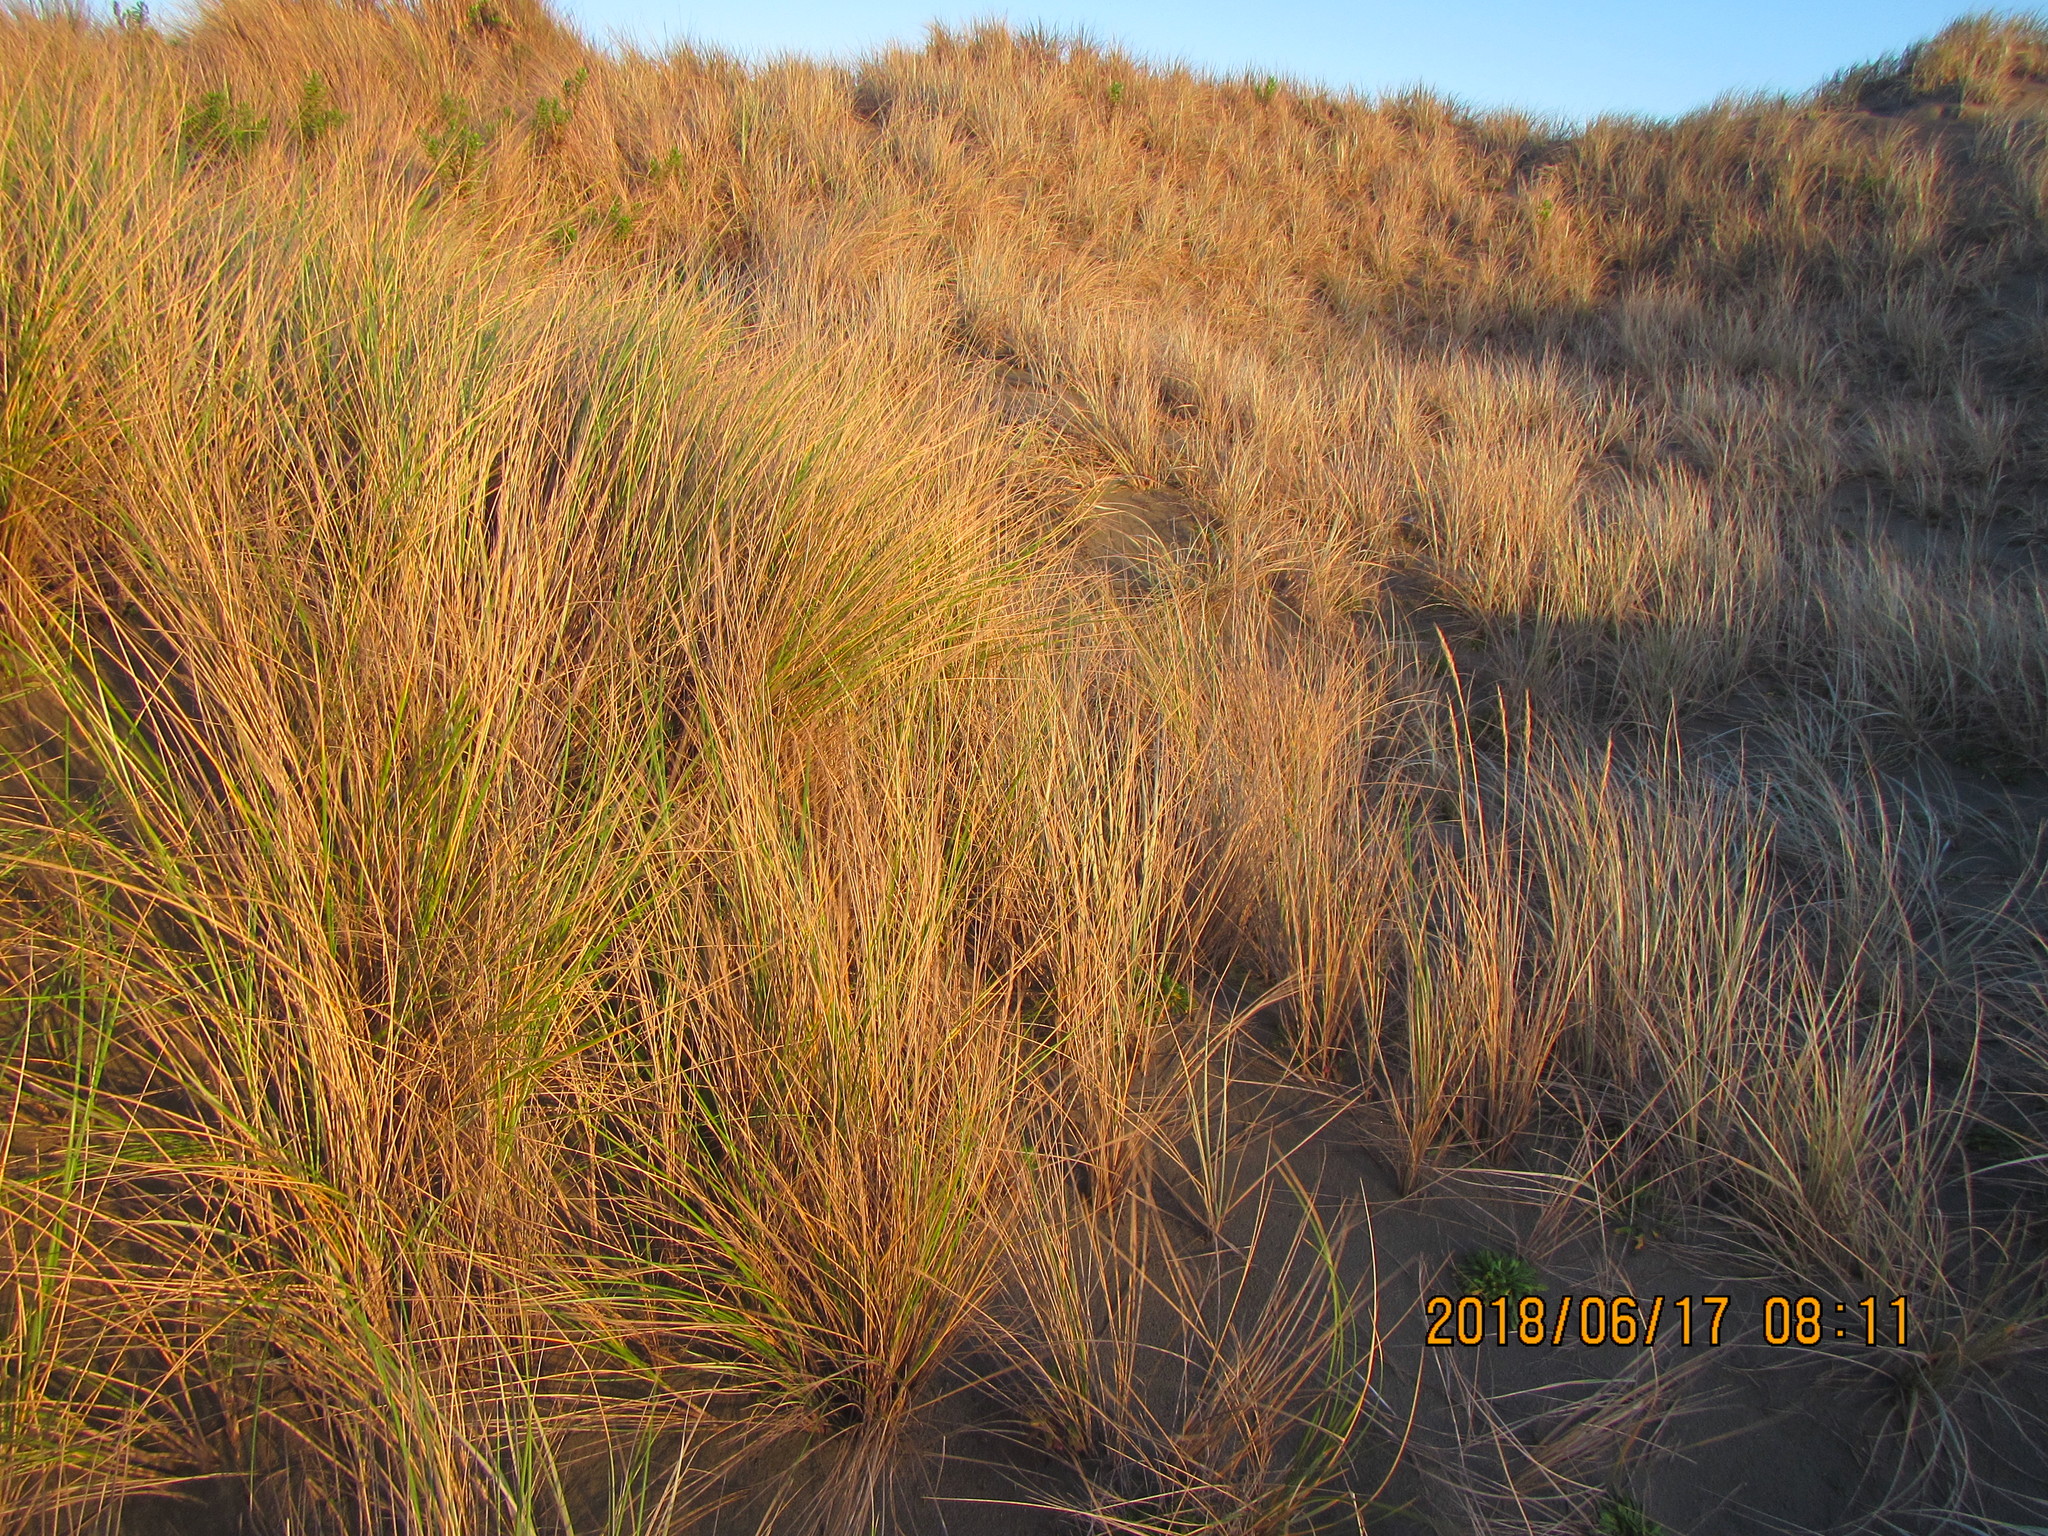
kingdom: Plantae
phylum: Tracheophyta
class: Liliopsida
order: Poales
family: Poaceae
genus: Calamagrostis
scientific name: Calamagrostis arenaria
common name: European beachgrass
